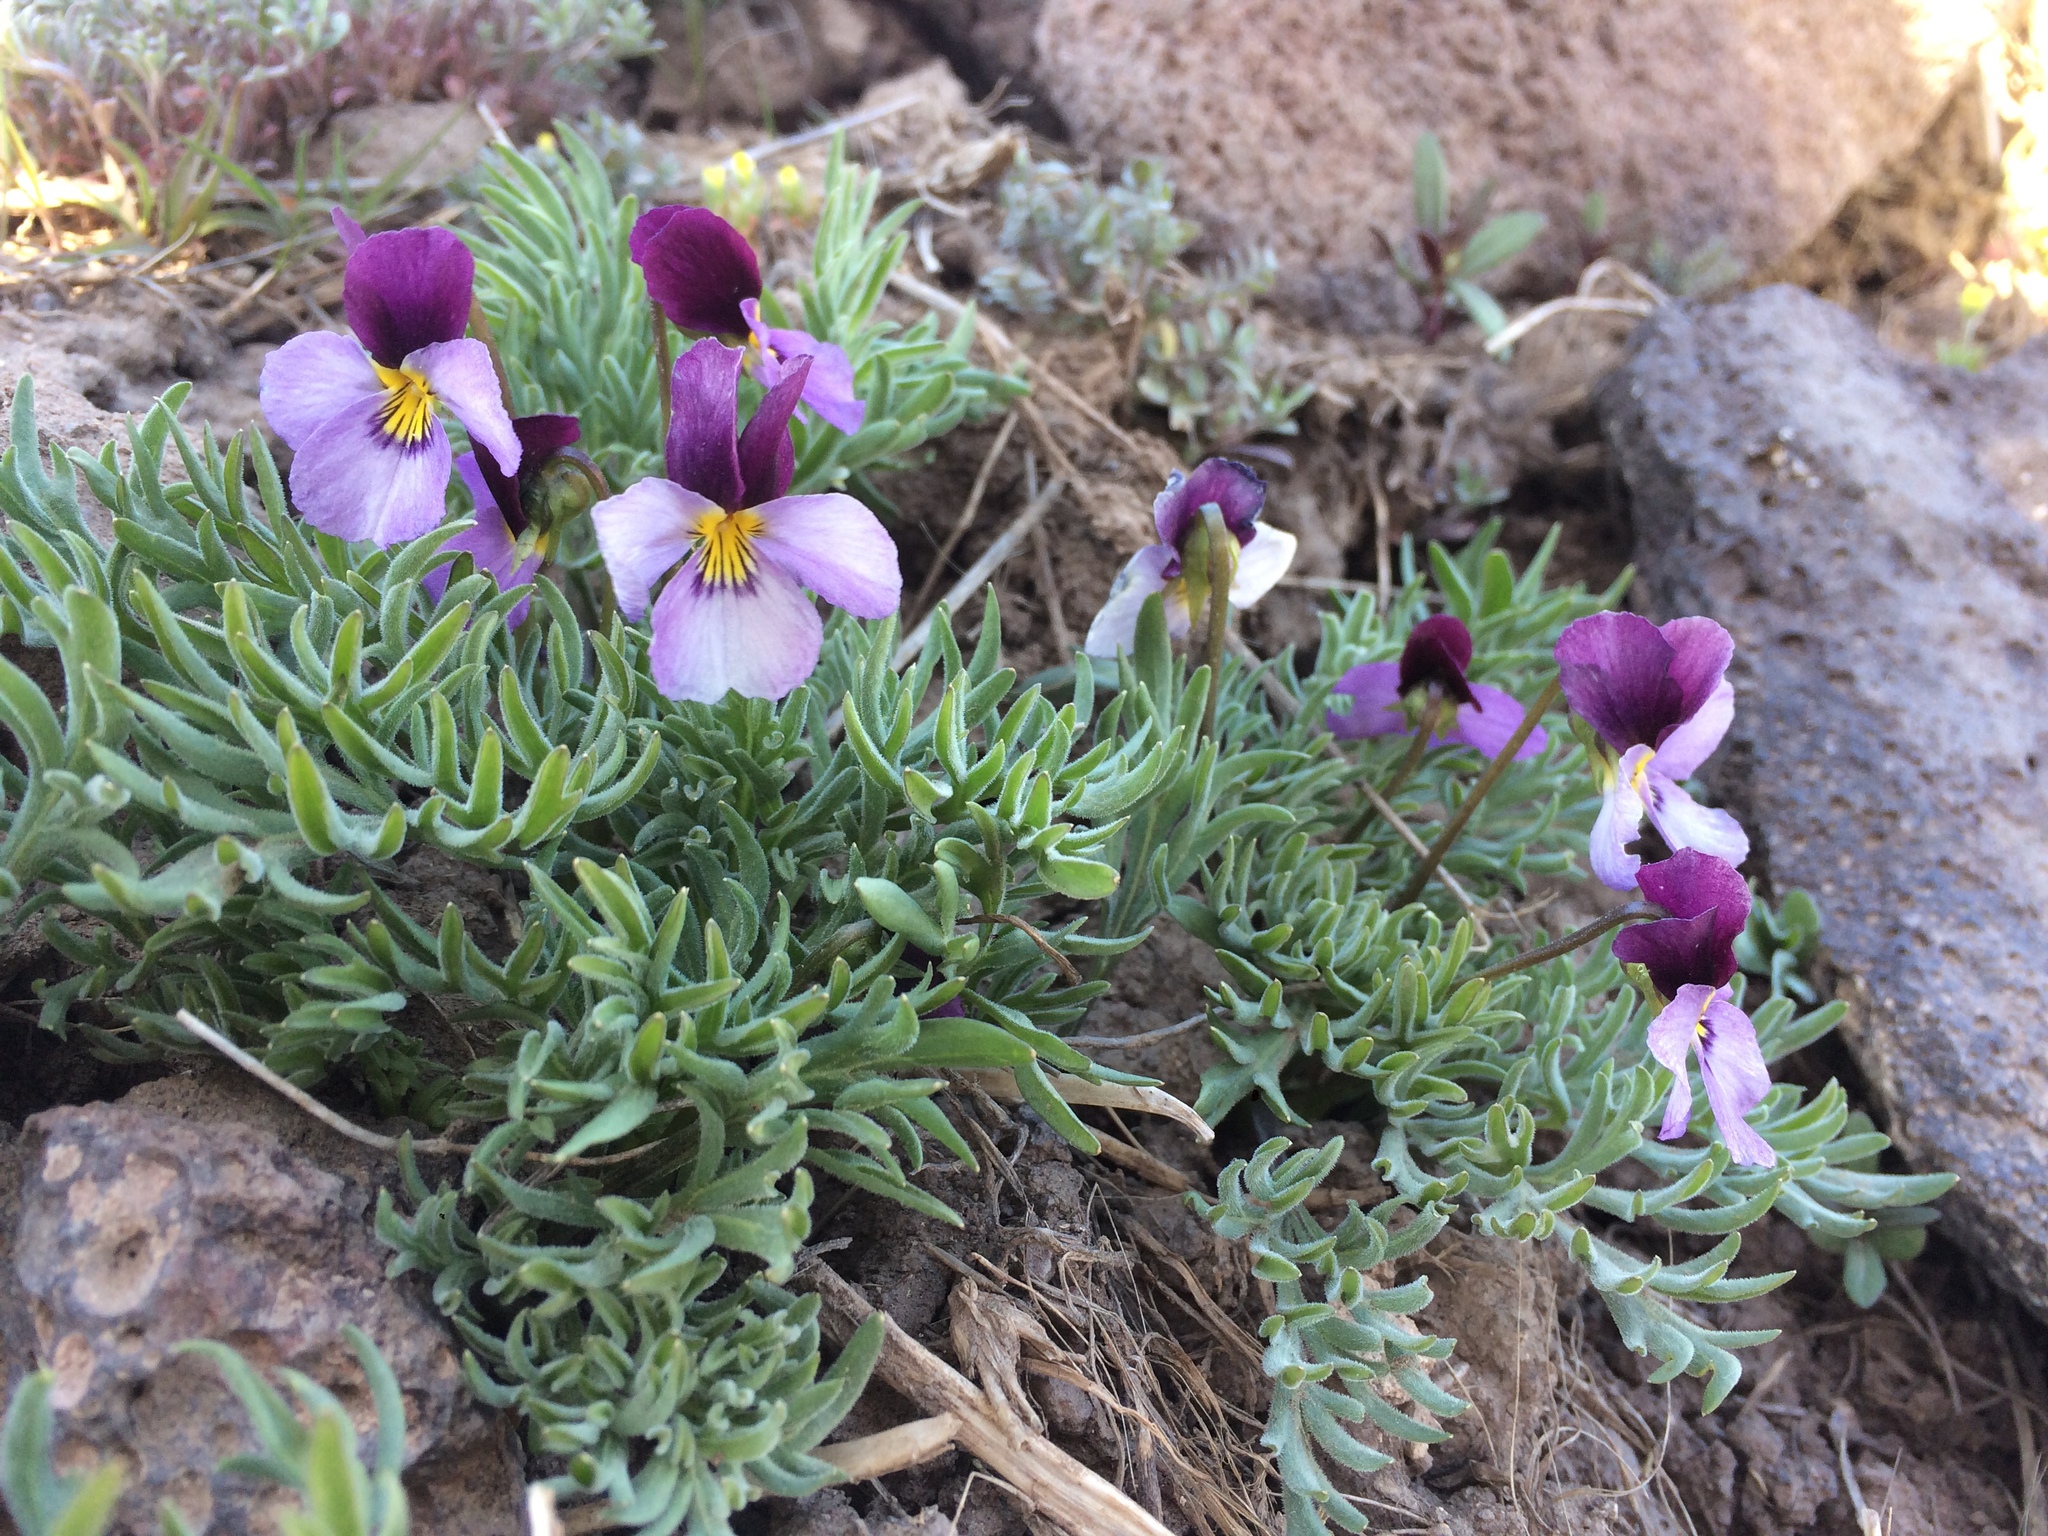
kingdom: Plantae
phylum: Tracheophyta
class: Magnoliopsida
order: Malpighiales
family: Violaceae
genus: Viola
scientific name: Viola beckwithii
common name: Beckwith's violet
